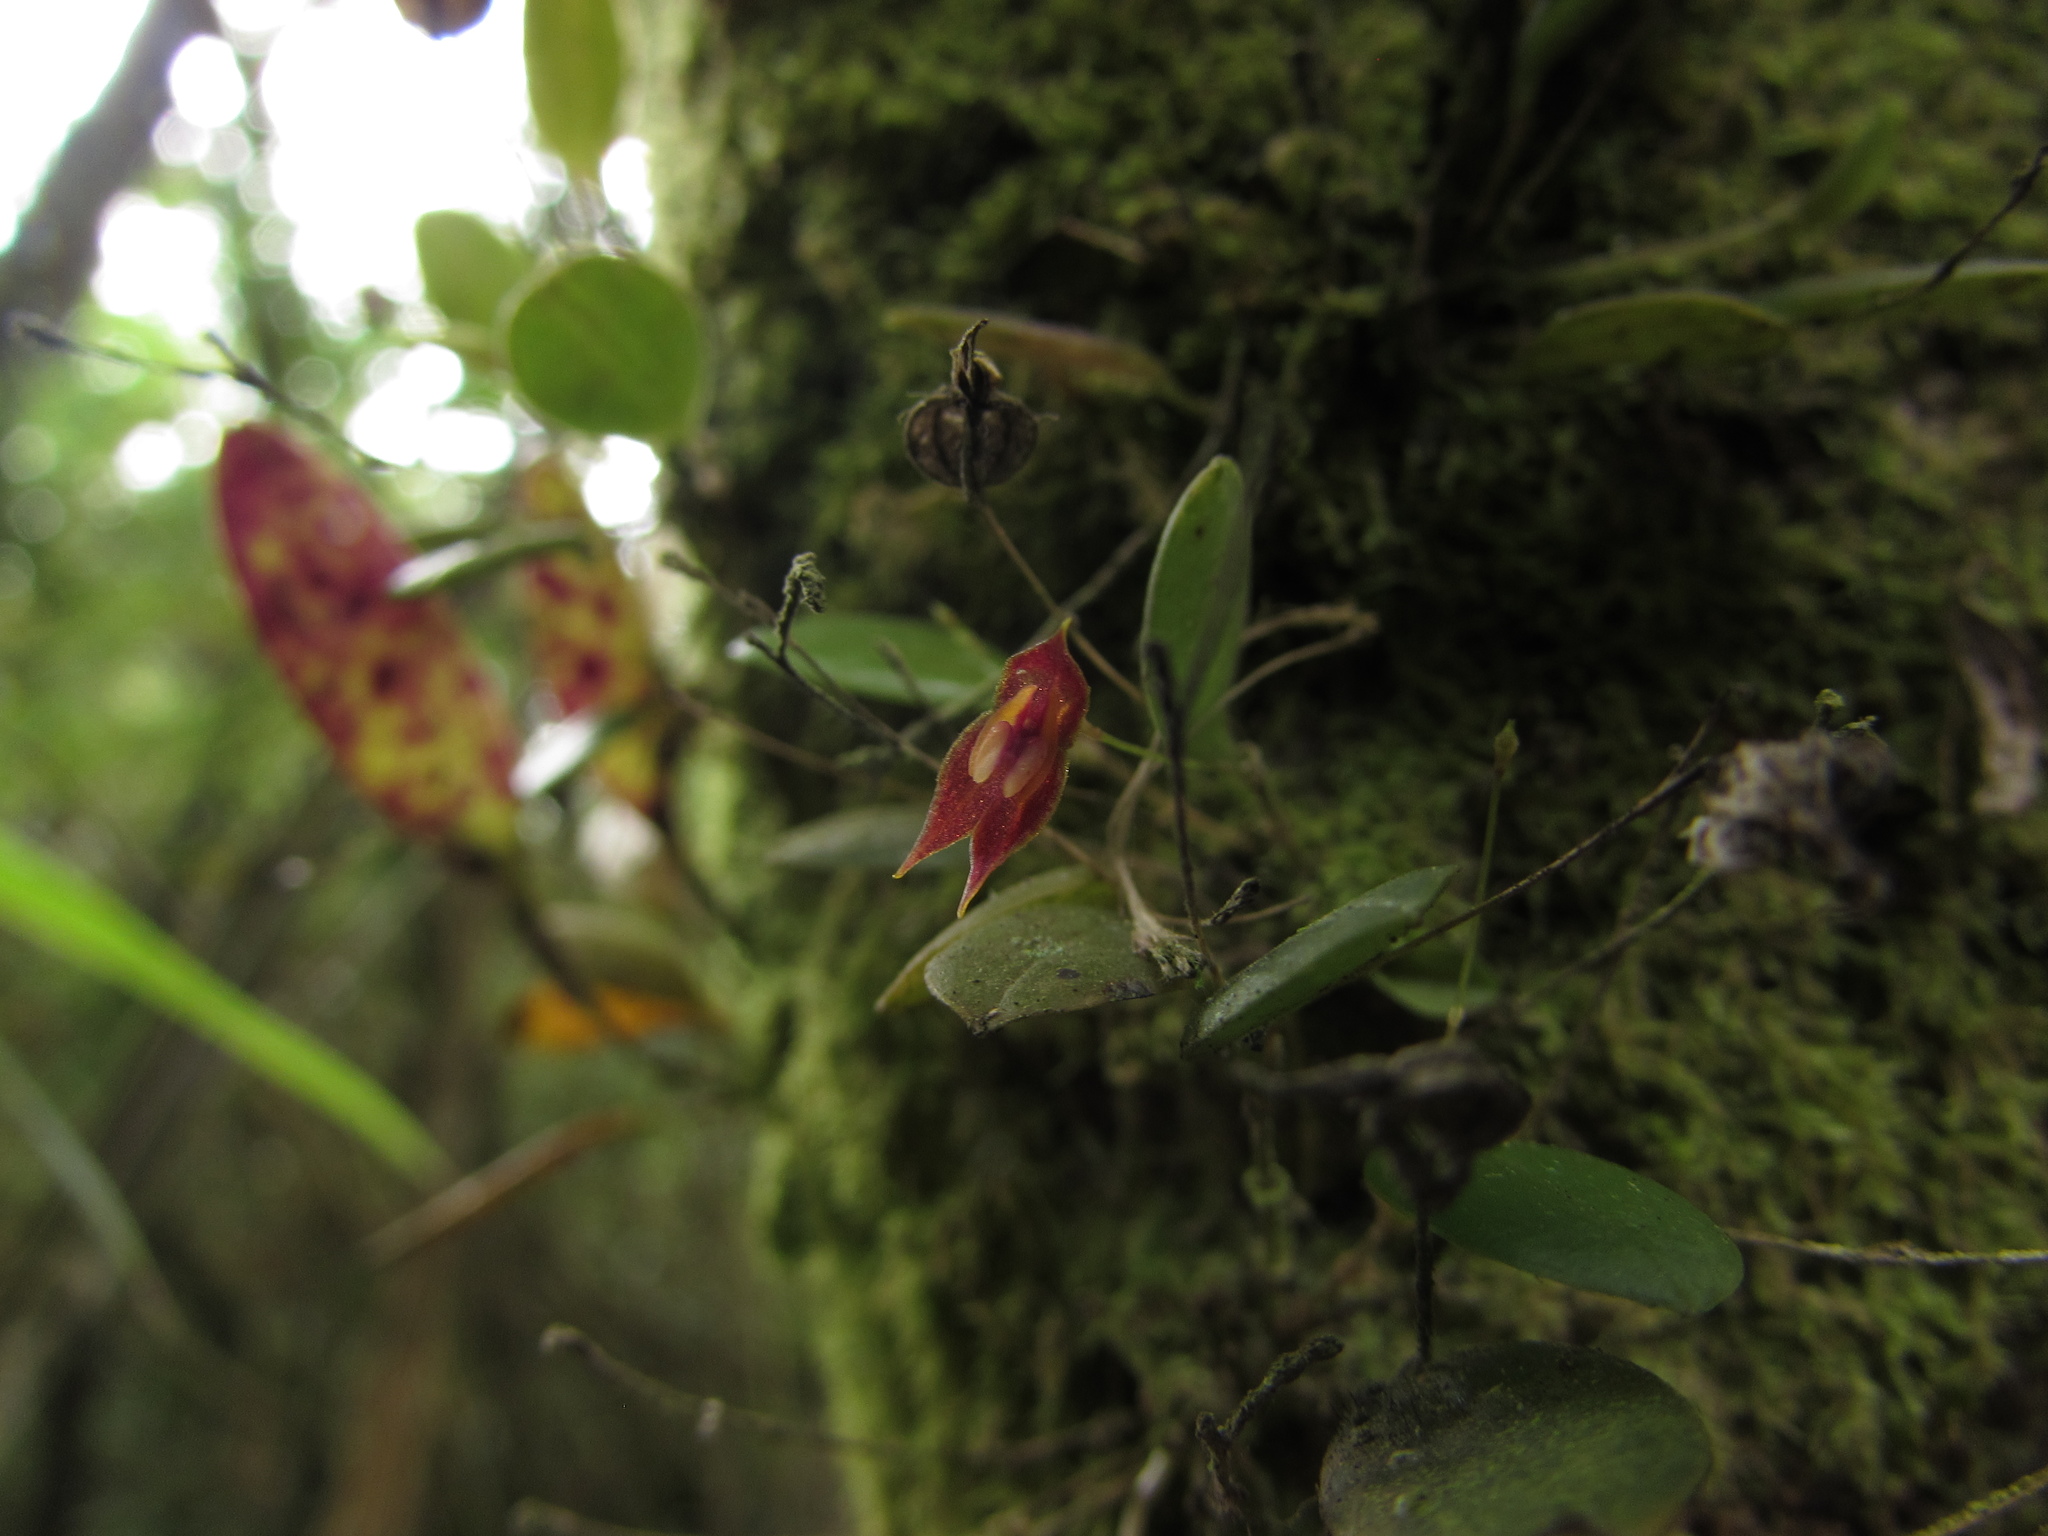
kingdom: Plantae
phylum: Tracheophyta
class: Liliopsida
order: Asparagales
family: Orchidaceae
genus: Lepanthes
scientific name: Lepanthes clausa
